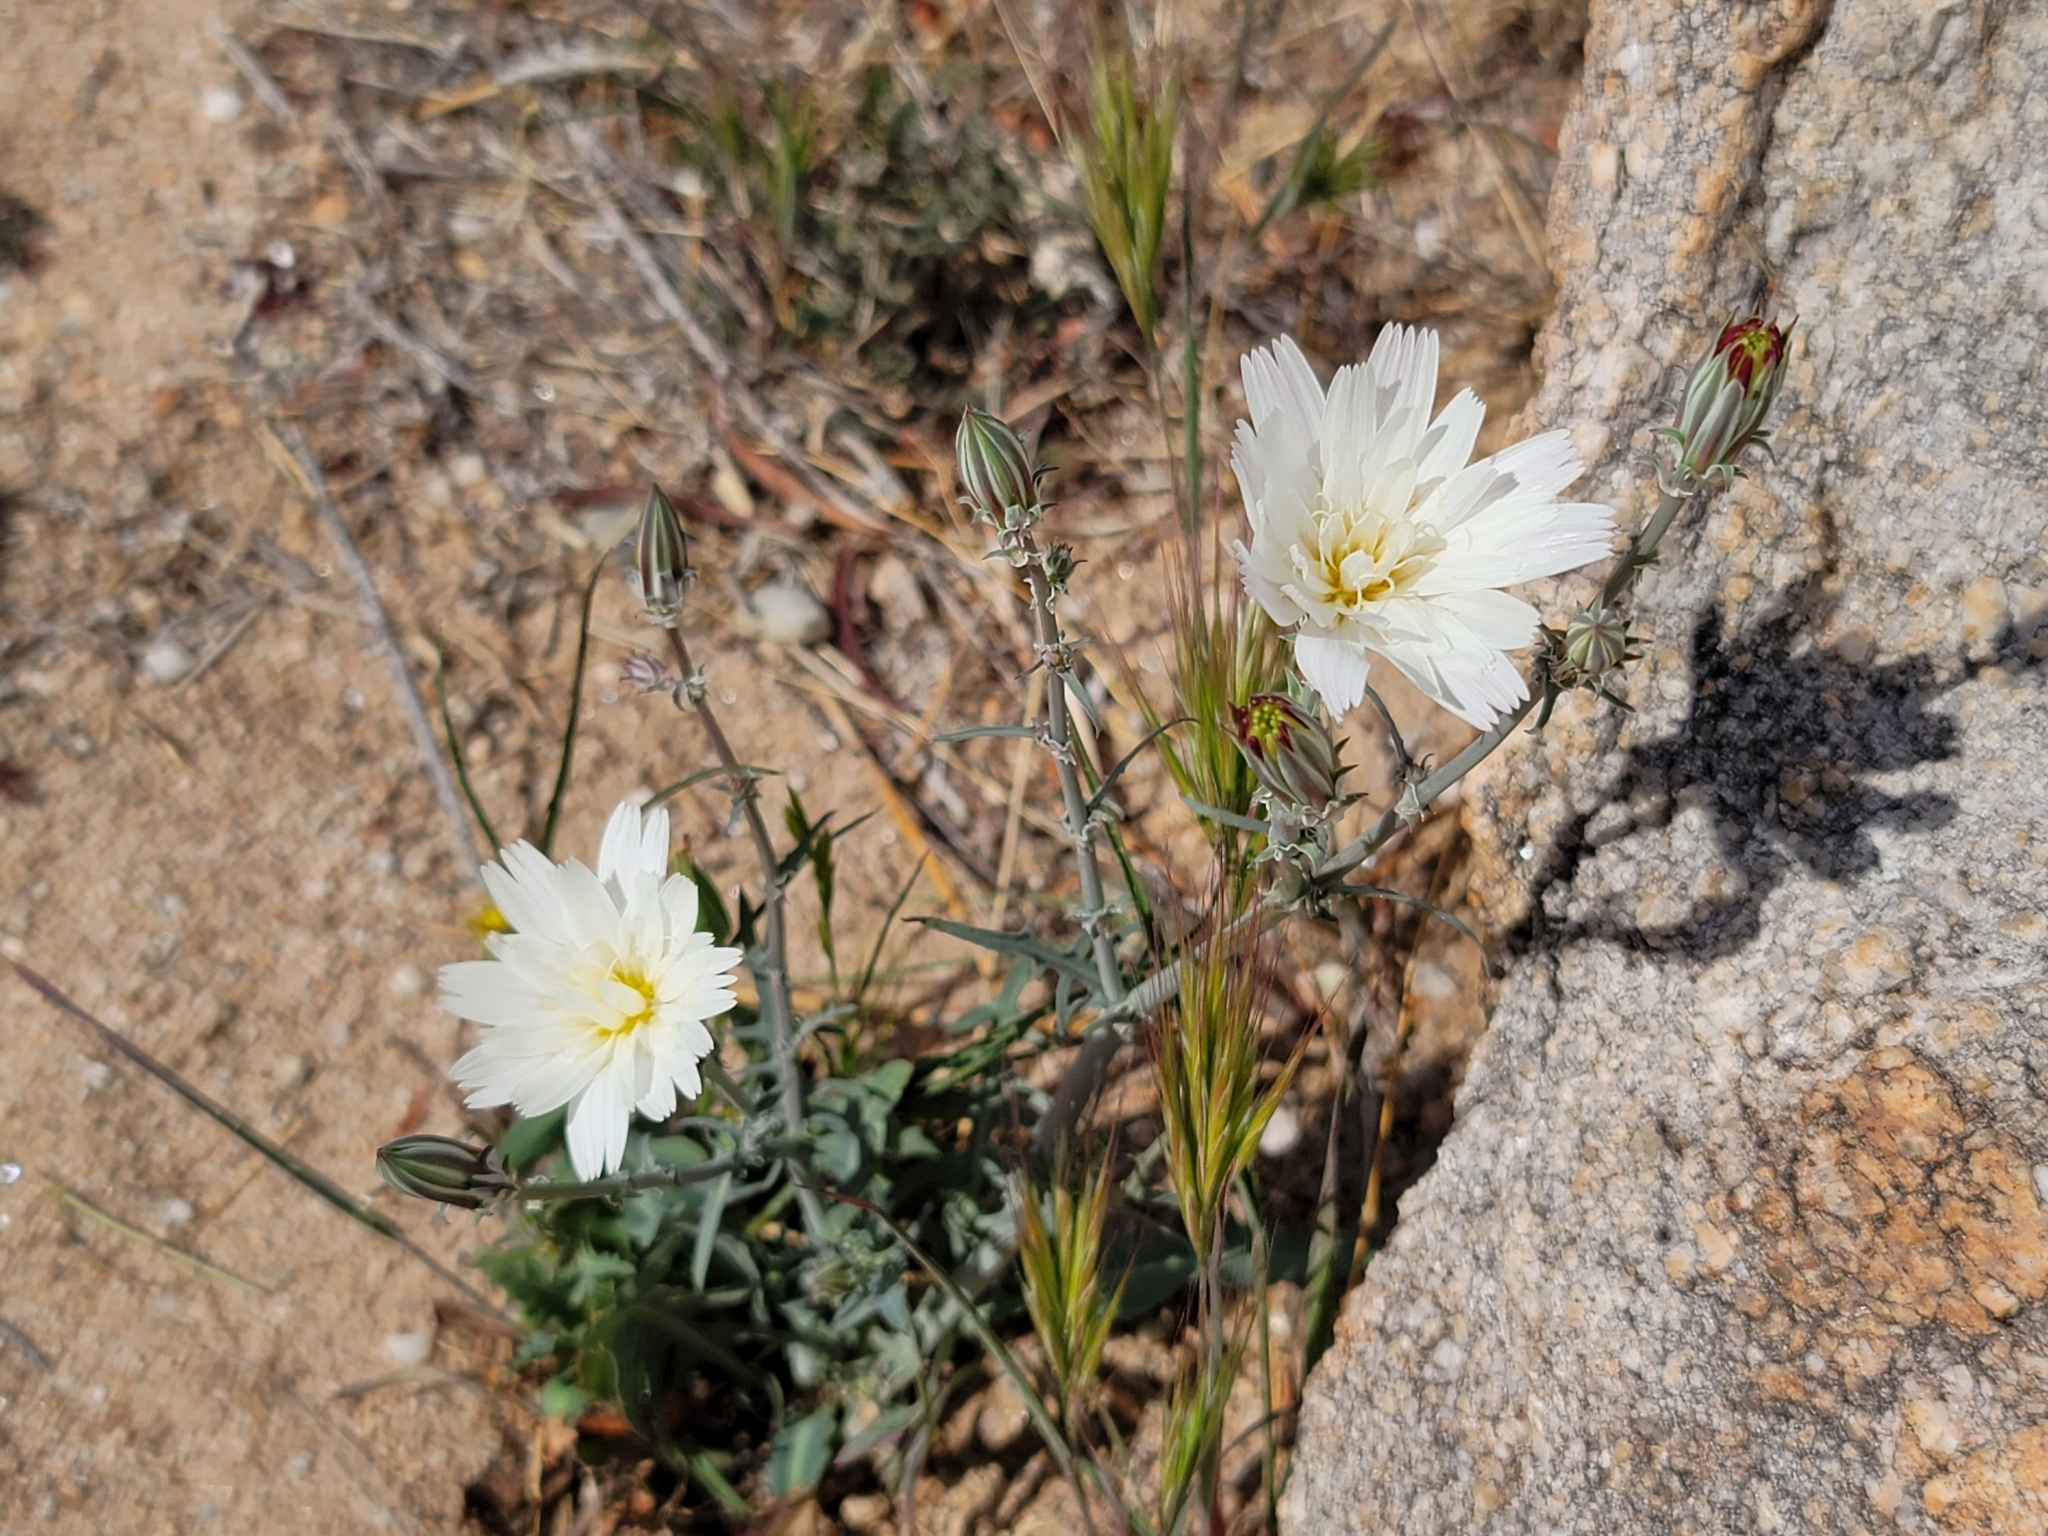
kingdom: Plantae
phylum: Tracheophyta
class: Magnoliopsida
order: Asterales
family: Asteraceae
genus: Rafinesquia
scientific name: Rafinesquia neomexicana
